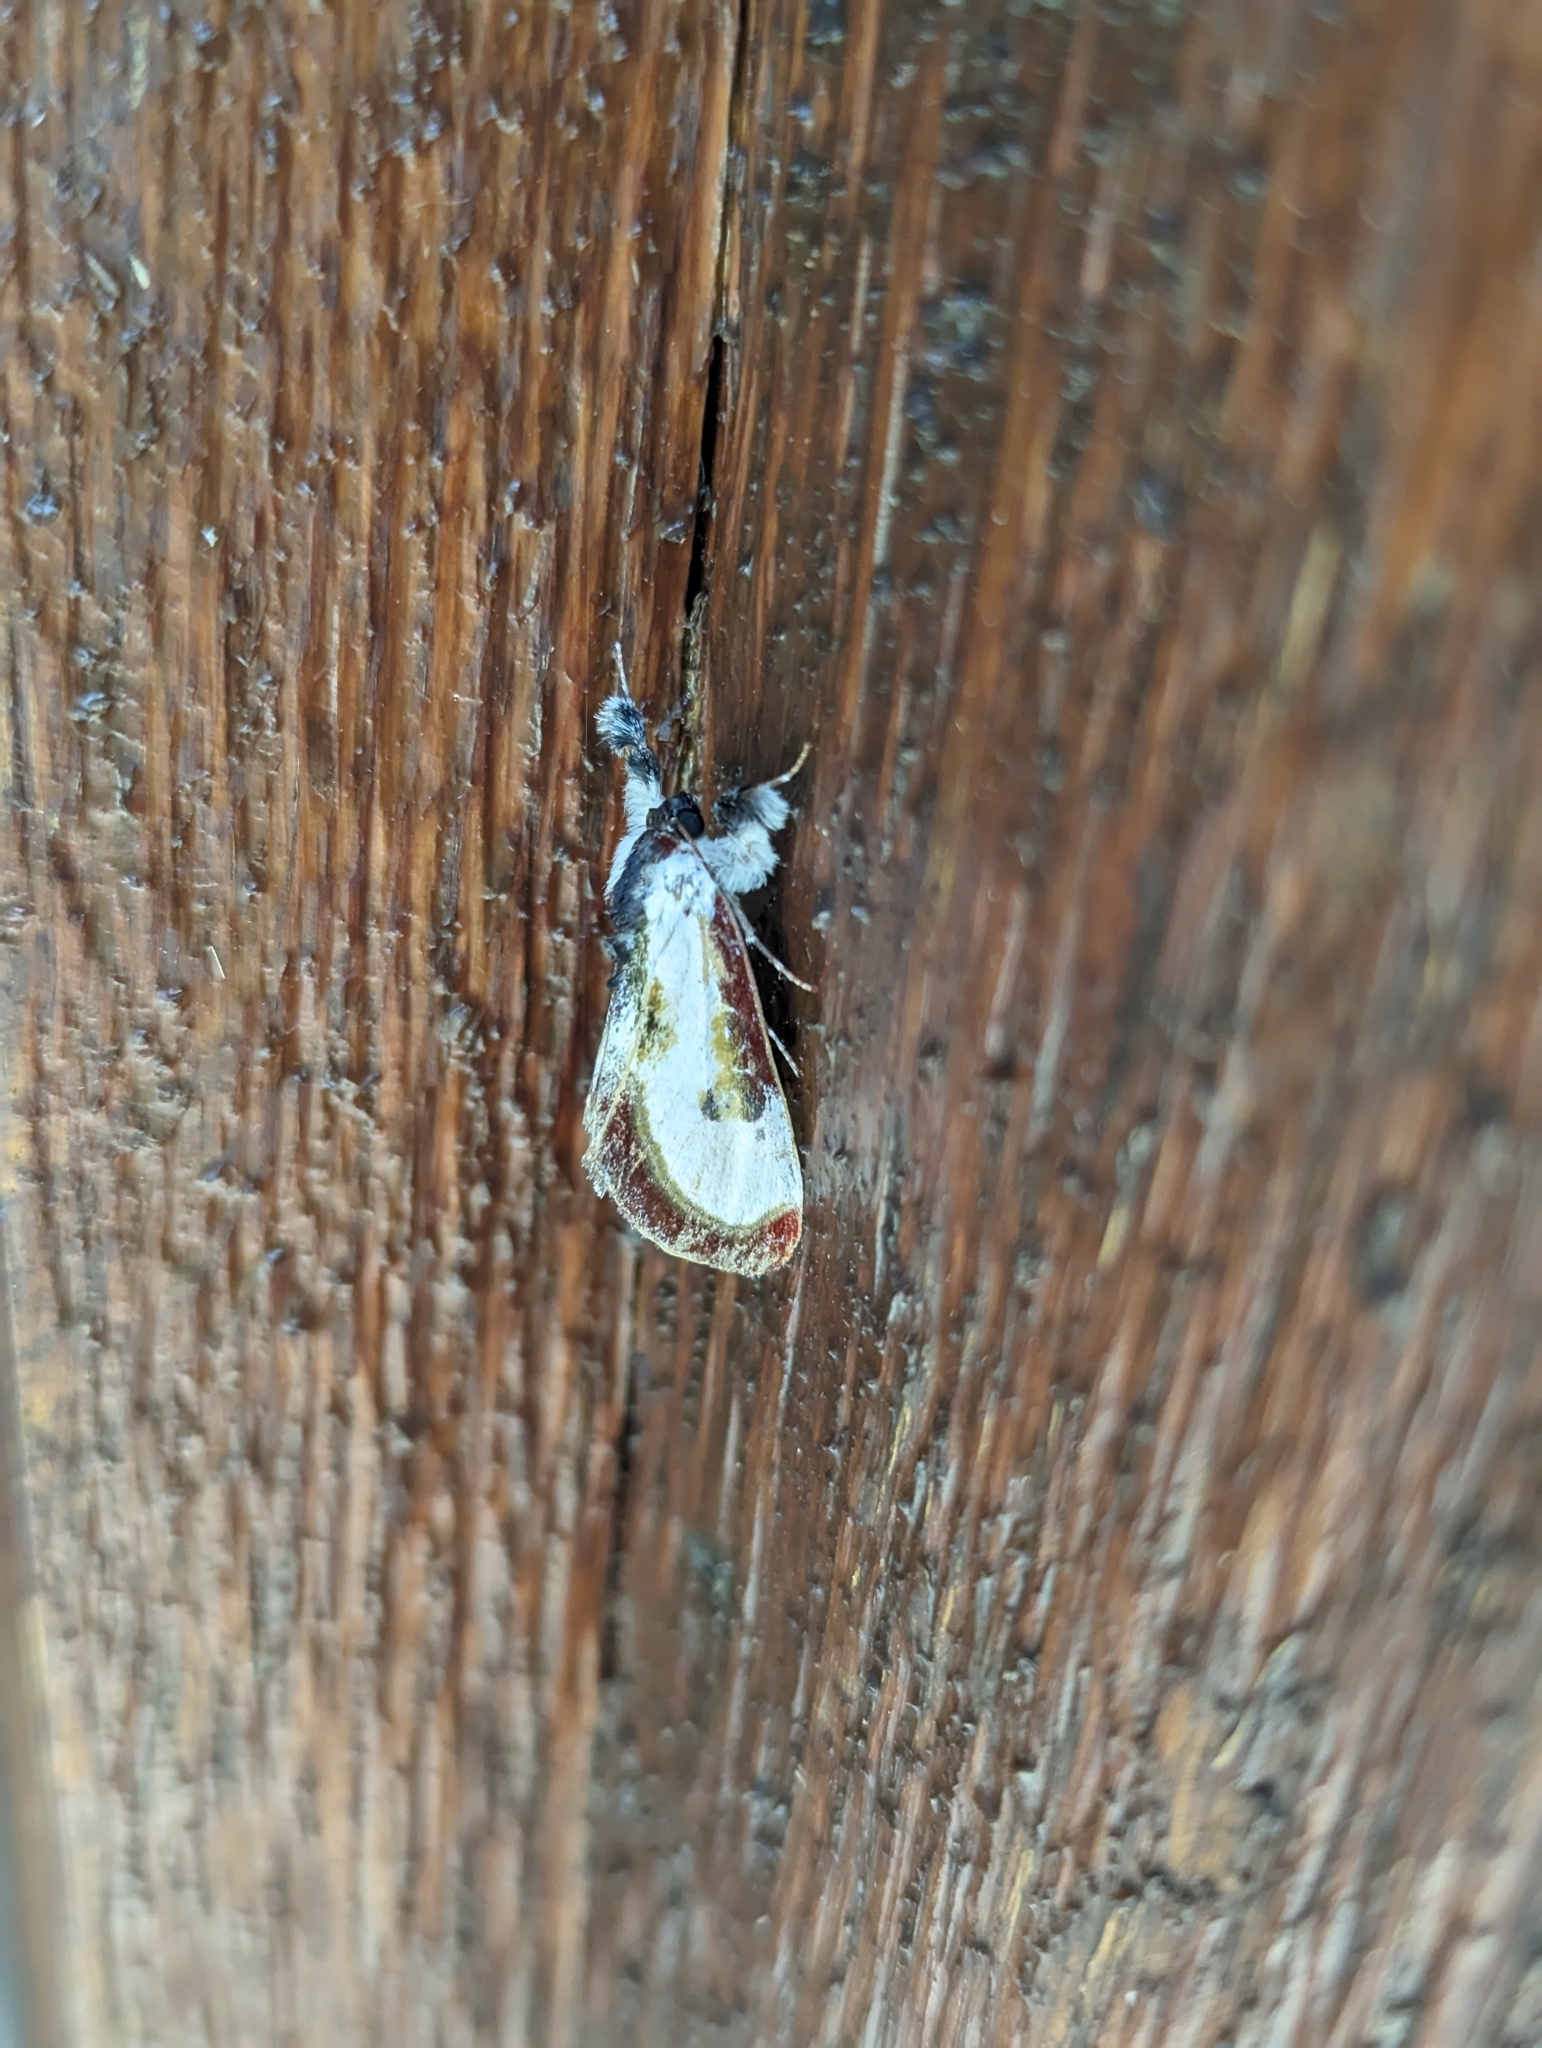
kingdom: Animalia
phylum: Arthropoda
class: Insecta
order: Lepidoptera
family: Noctuidae
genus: Eudryas
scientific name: Eudryas grata
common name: Beautiful wood-nymph
